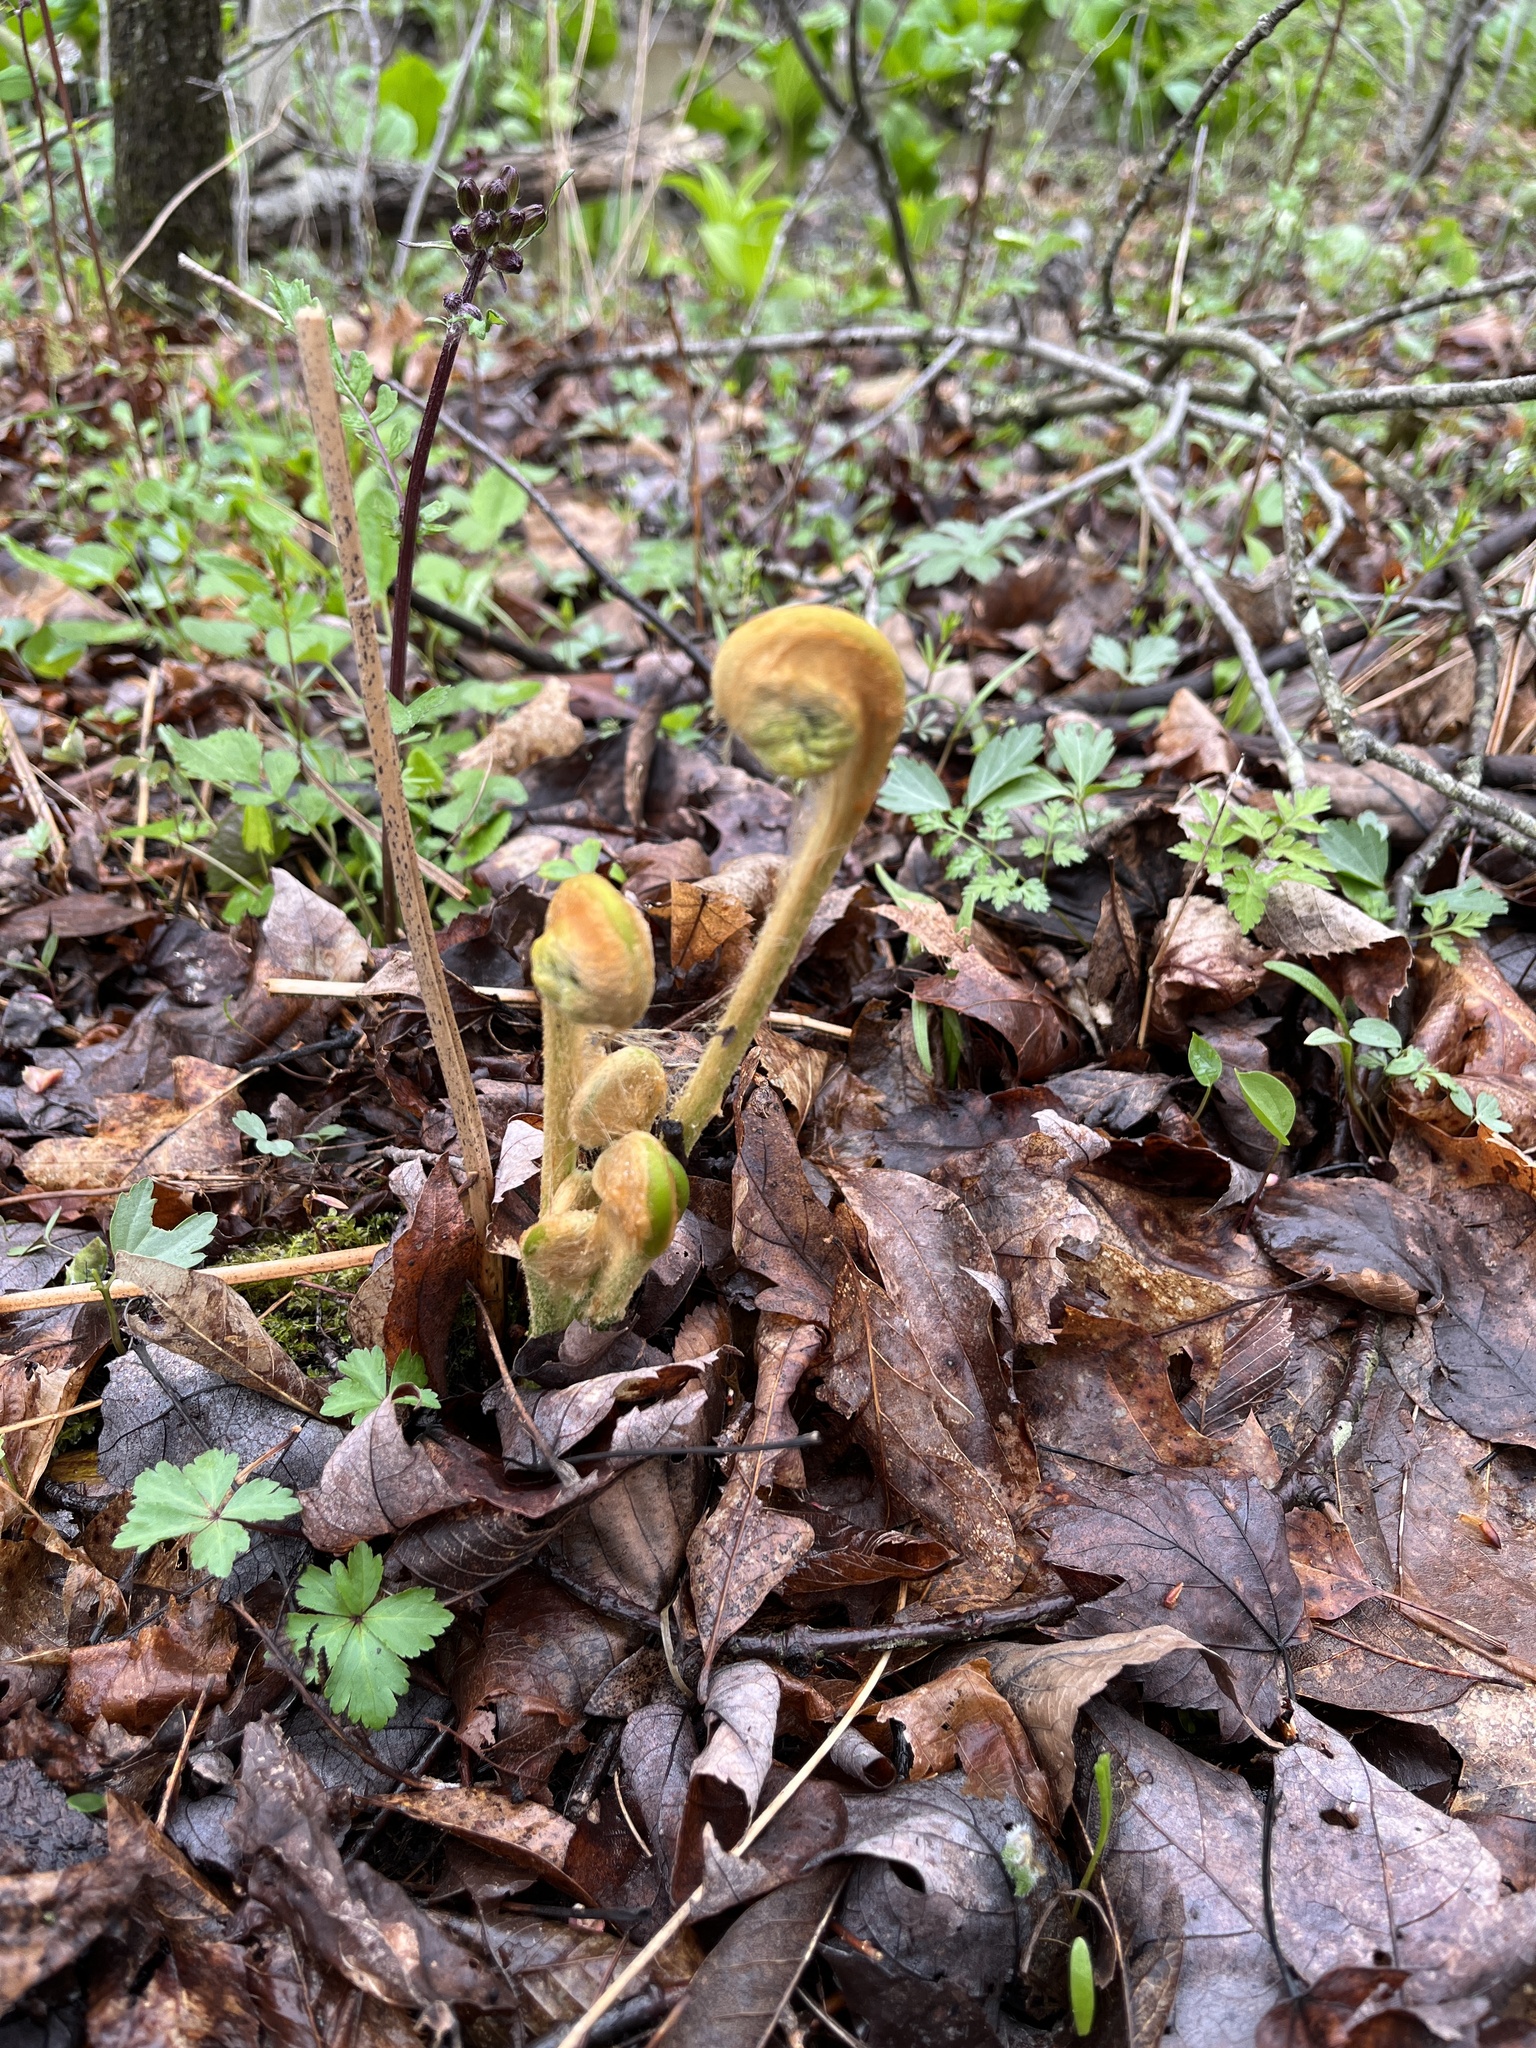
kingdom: Plantae
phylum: Tracheophyta
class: Polypodiopsida
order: Osmundales
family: Osmundaceae
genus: Osmundastrum
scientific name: Osmundastrum cinnamomeum
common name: Cinnamon fern
